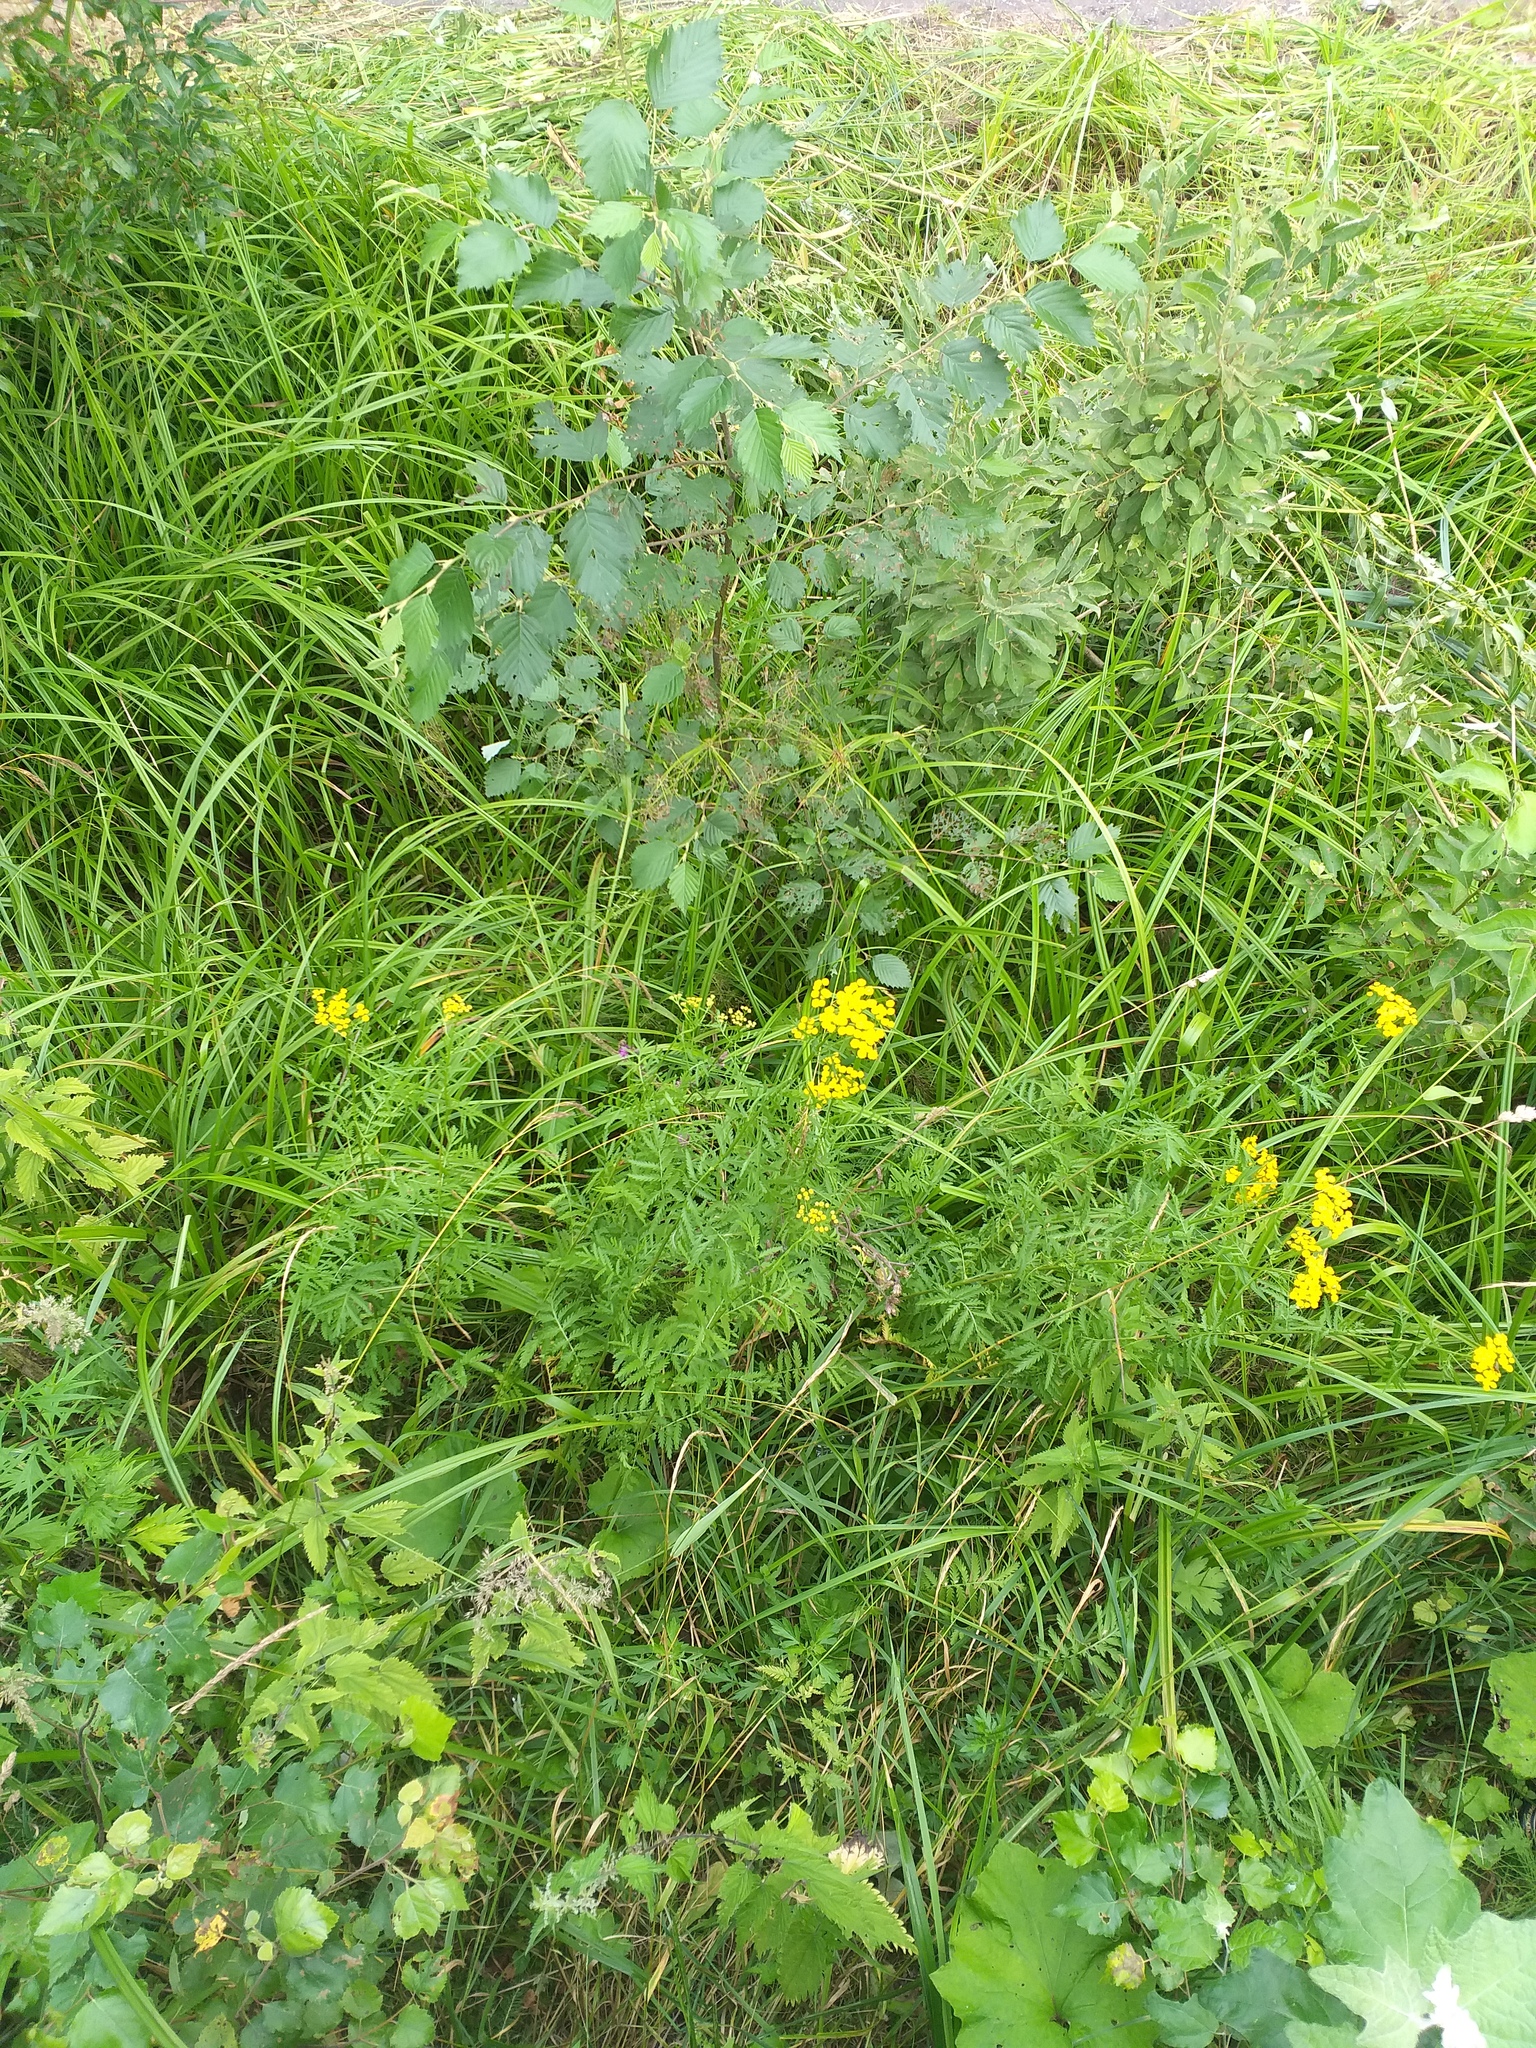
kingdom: Plantae
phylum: Tracheophyta
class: Magnoliopsida
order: Asterales
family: Asteraceae
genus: Tanacetum
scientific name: Tanacetum vulgare
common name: Common tansy
